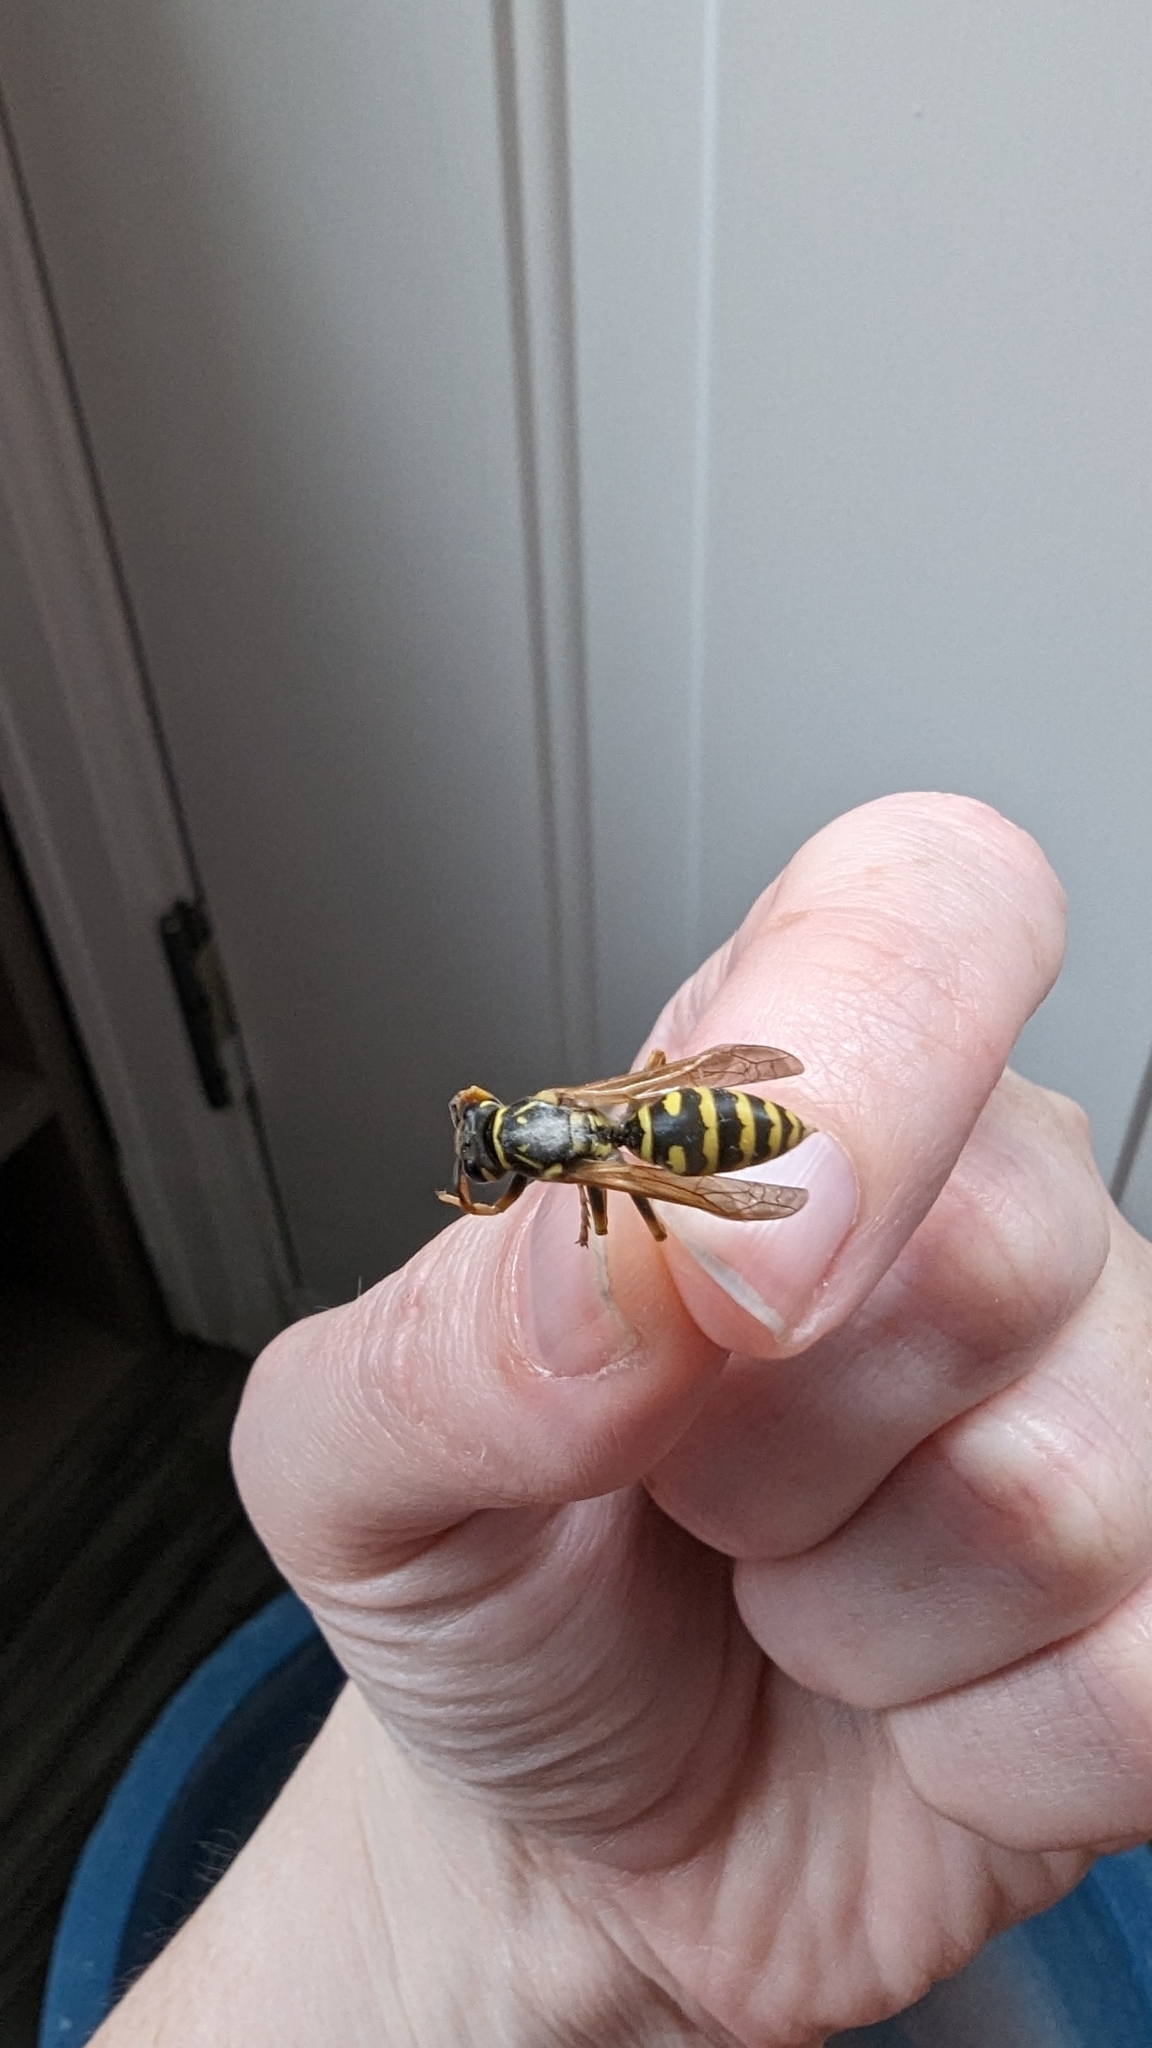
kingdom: Animalia
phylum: Arthropoda
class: Insecta
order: Hymenoptera
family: Eumenidae
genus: Polistes
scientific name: Polistes dominula
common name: Paper wasp
